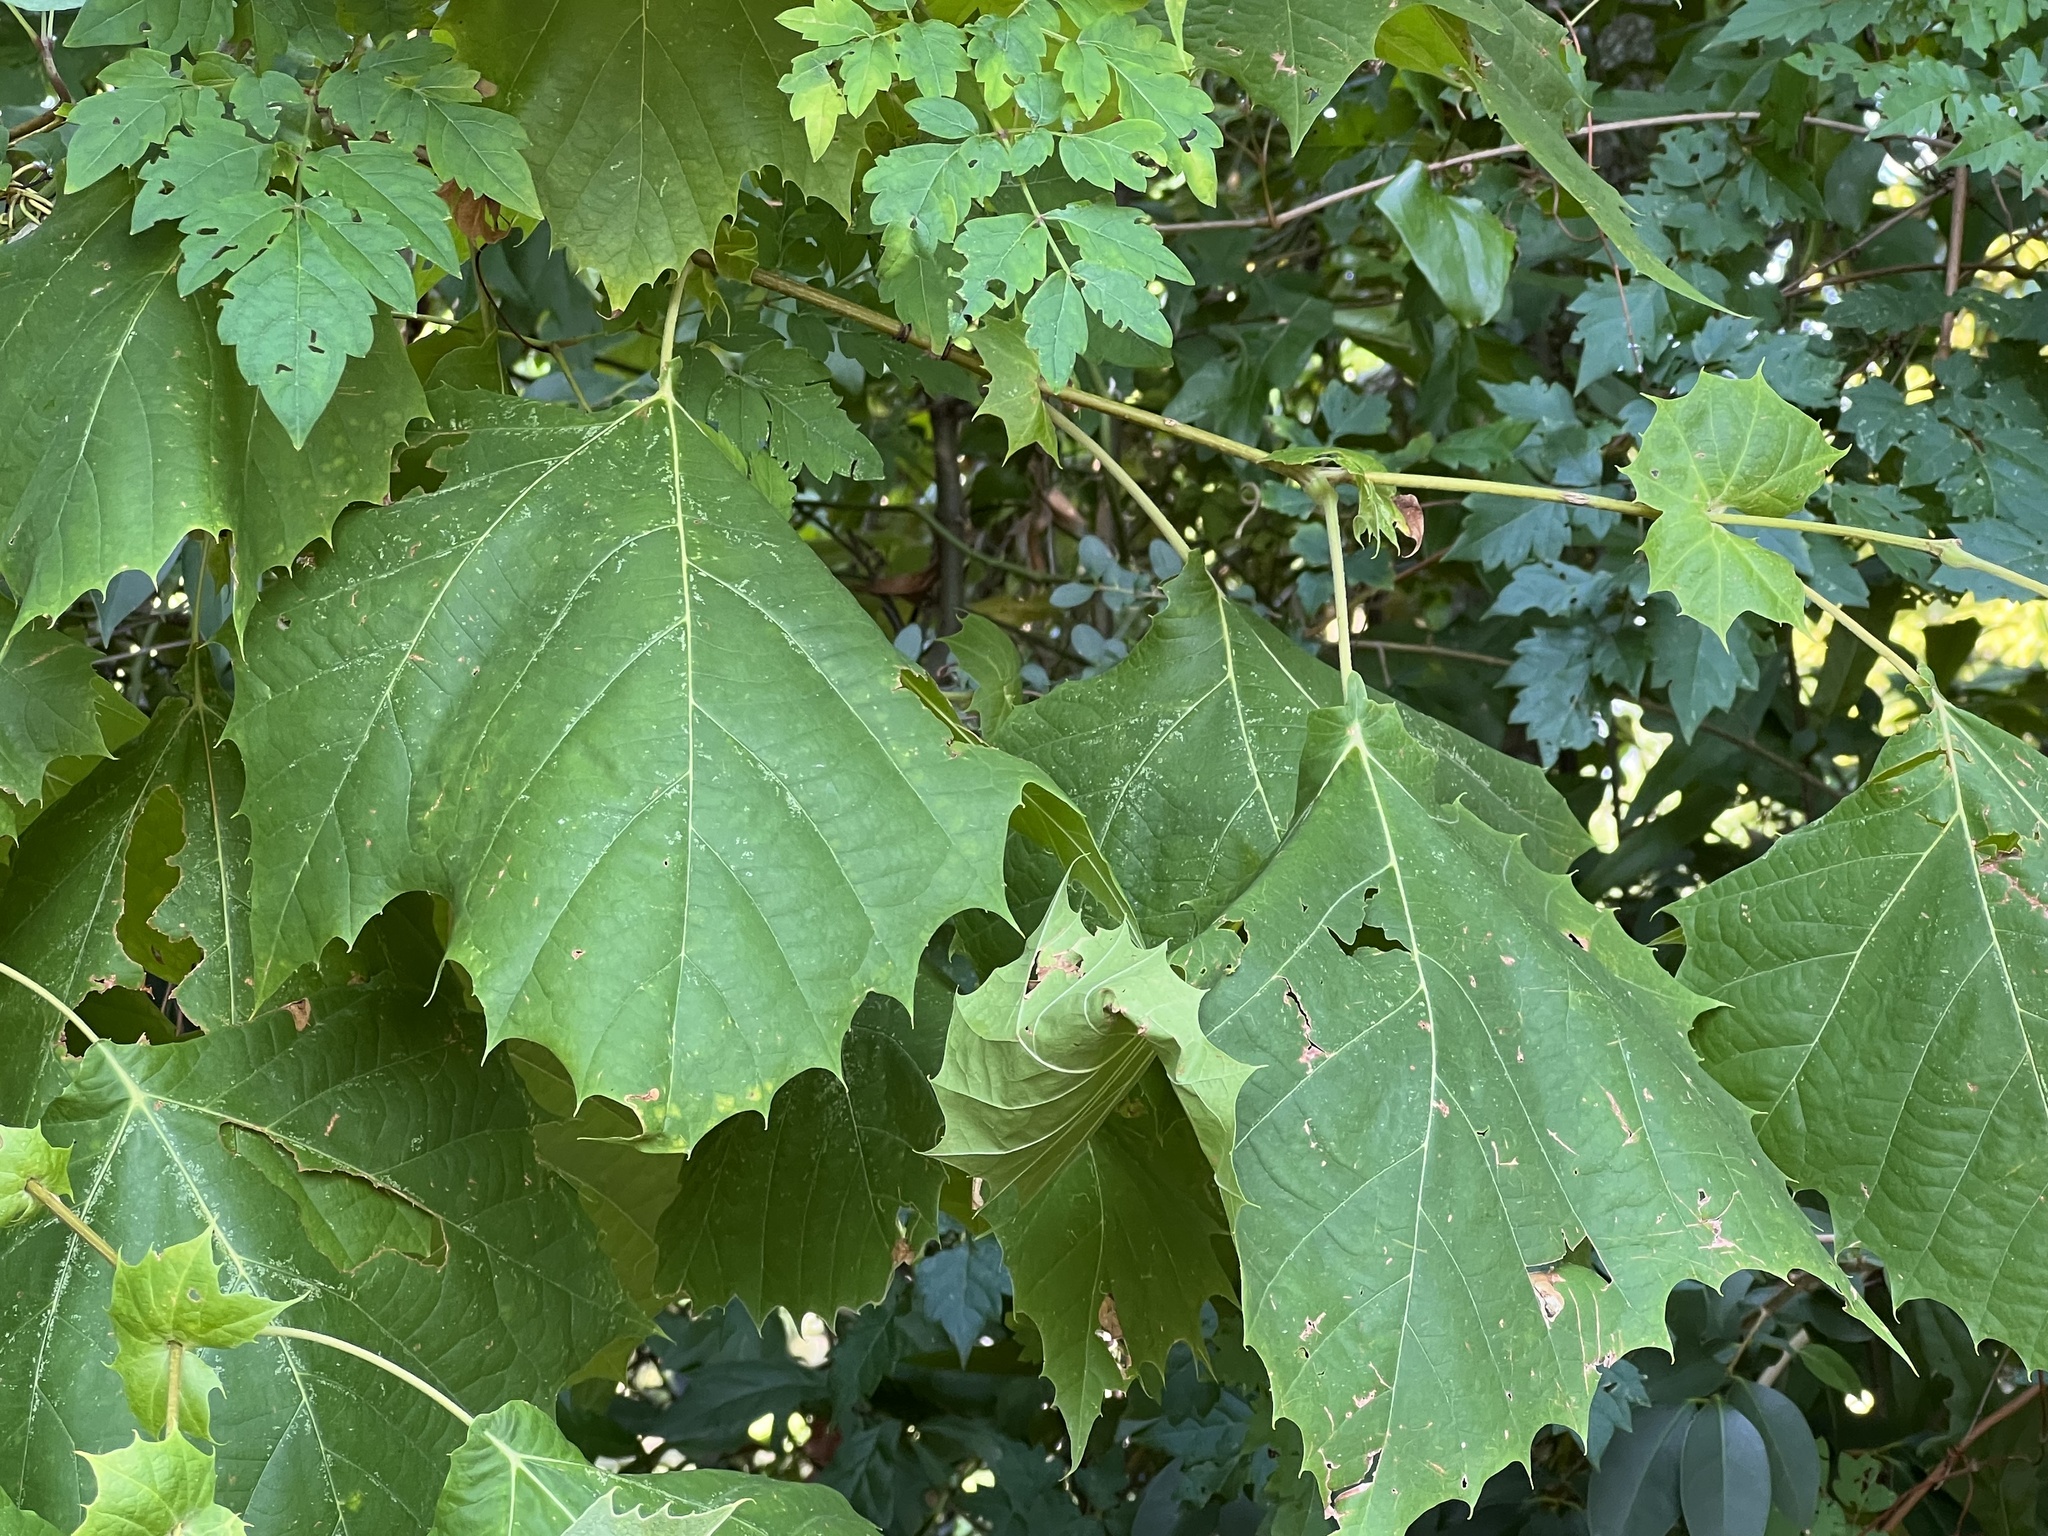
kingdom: Plantae
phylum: Tracheophyta
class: Magnoliopsida
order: Proteales
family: Platanaceae
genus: Platanus
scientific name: Platanus occidentalis
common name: American sycamore
